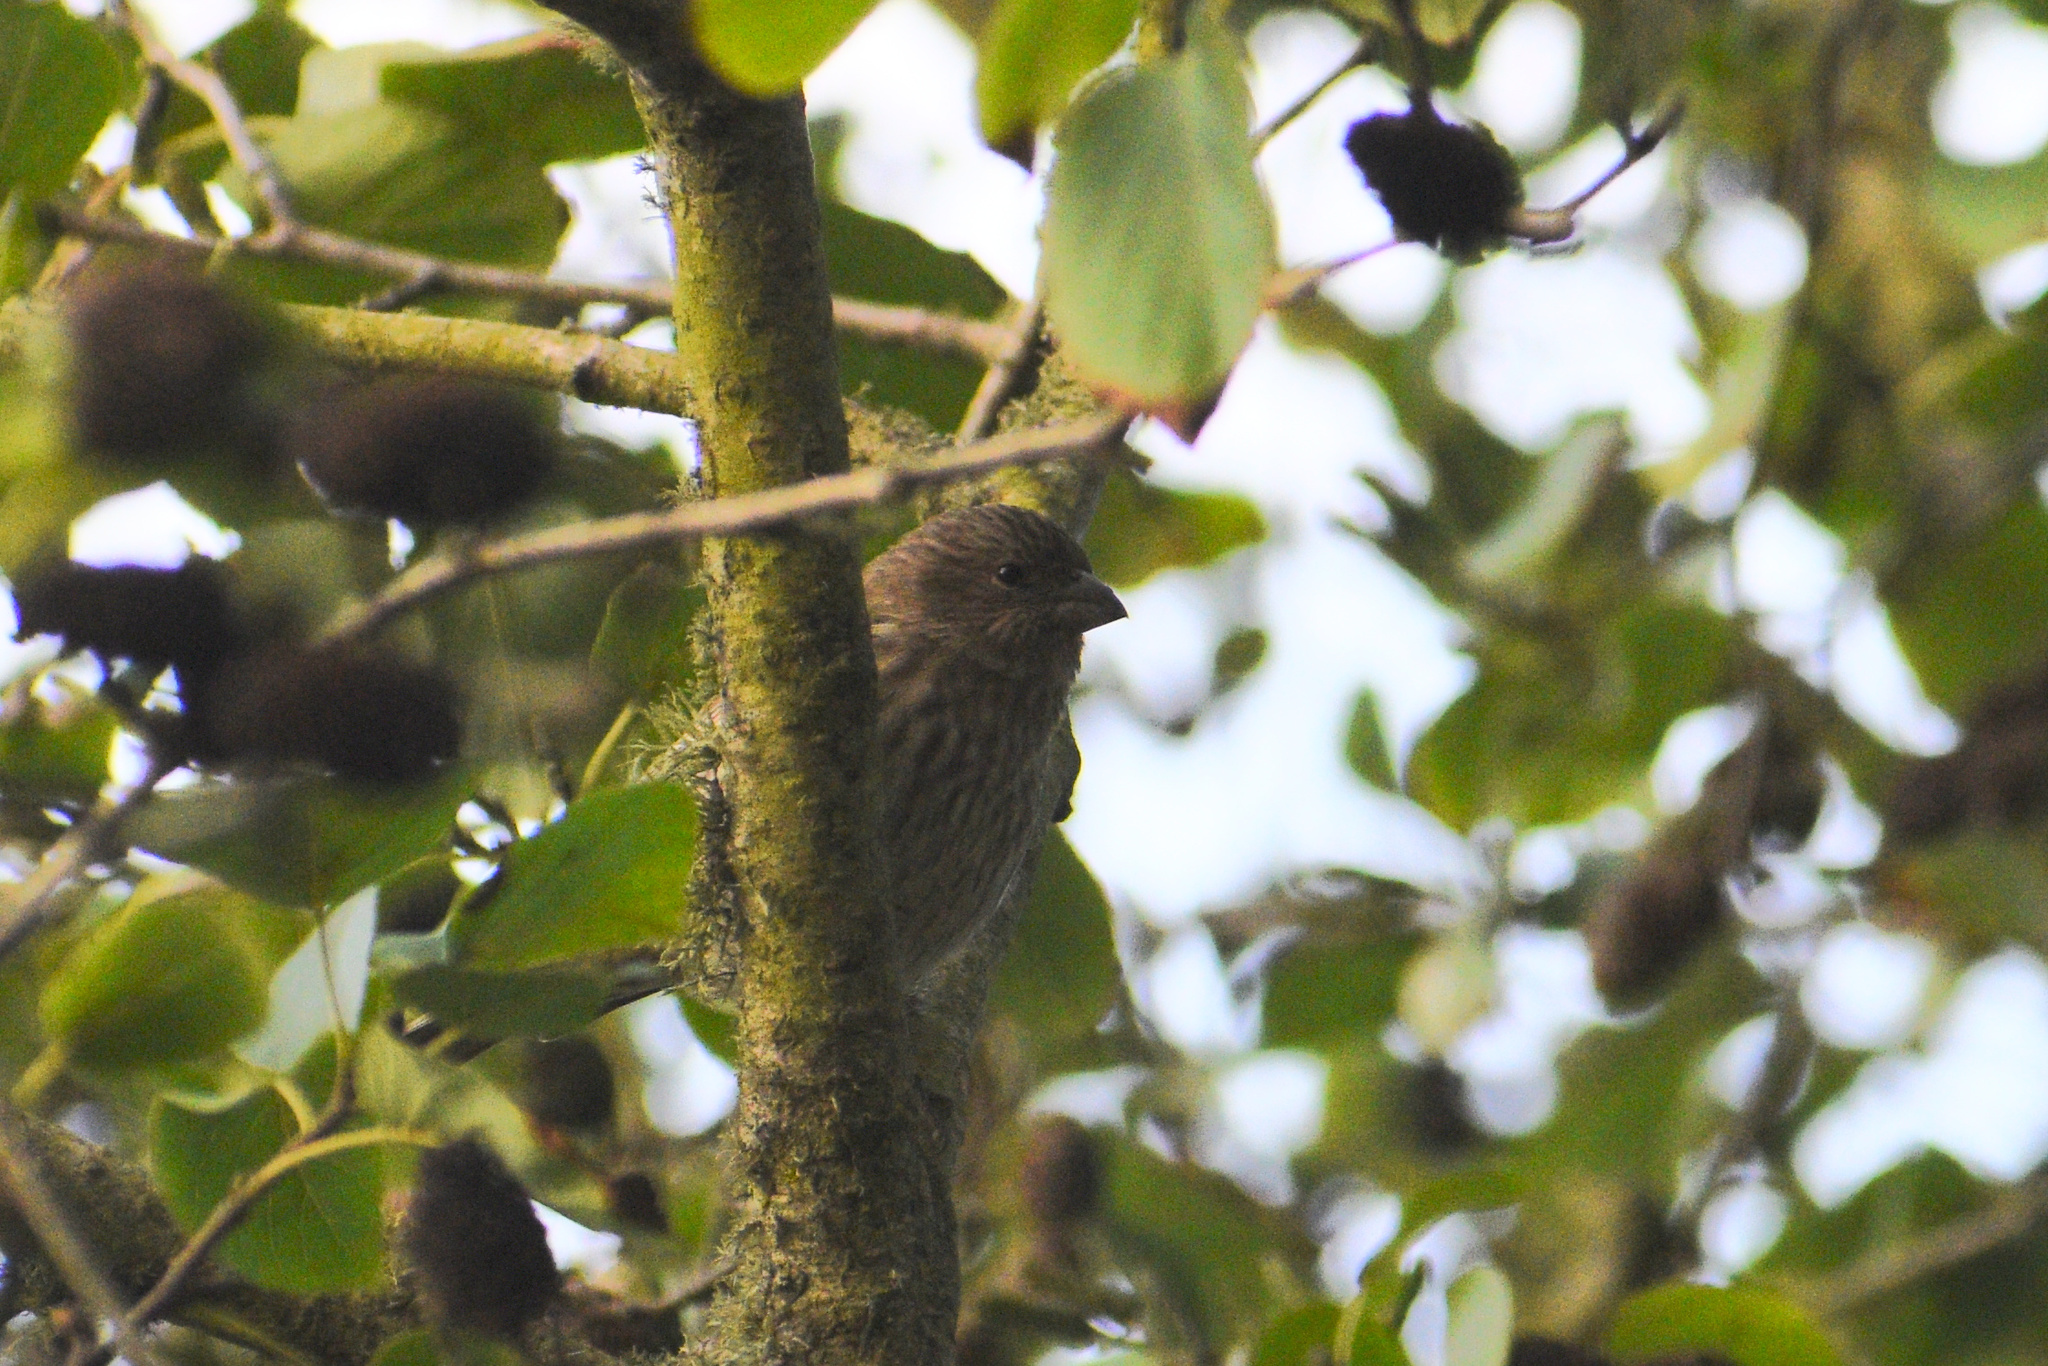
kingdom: Animalia
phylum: Chordata
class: Aves
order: Passeriformes
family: Fringillidae
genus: Haemorhous
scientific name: Haemorhous mexicanus
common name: House finch
